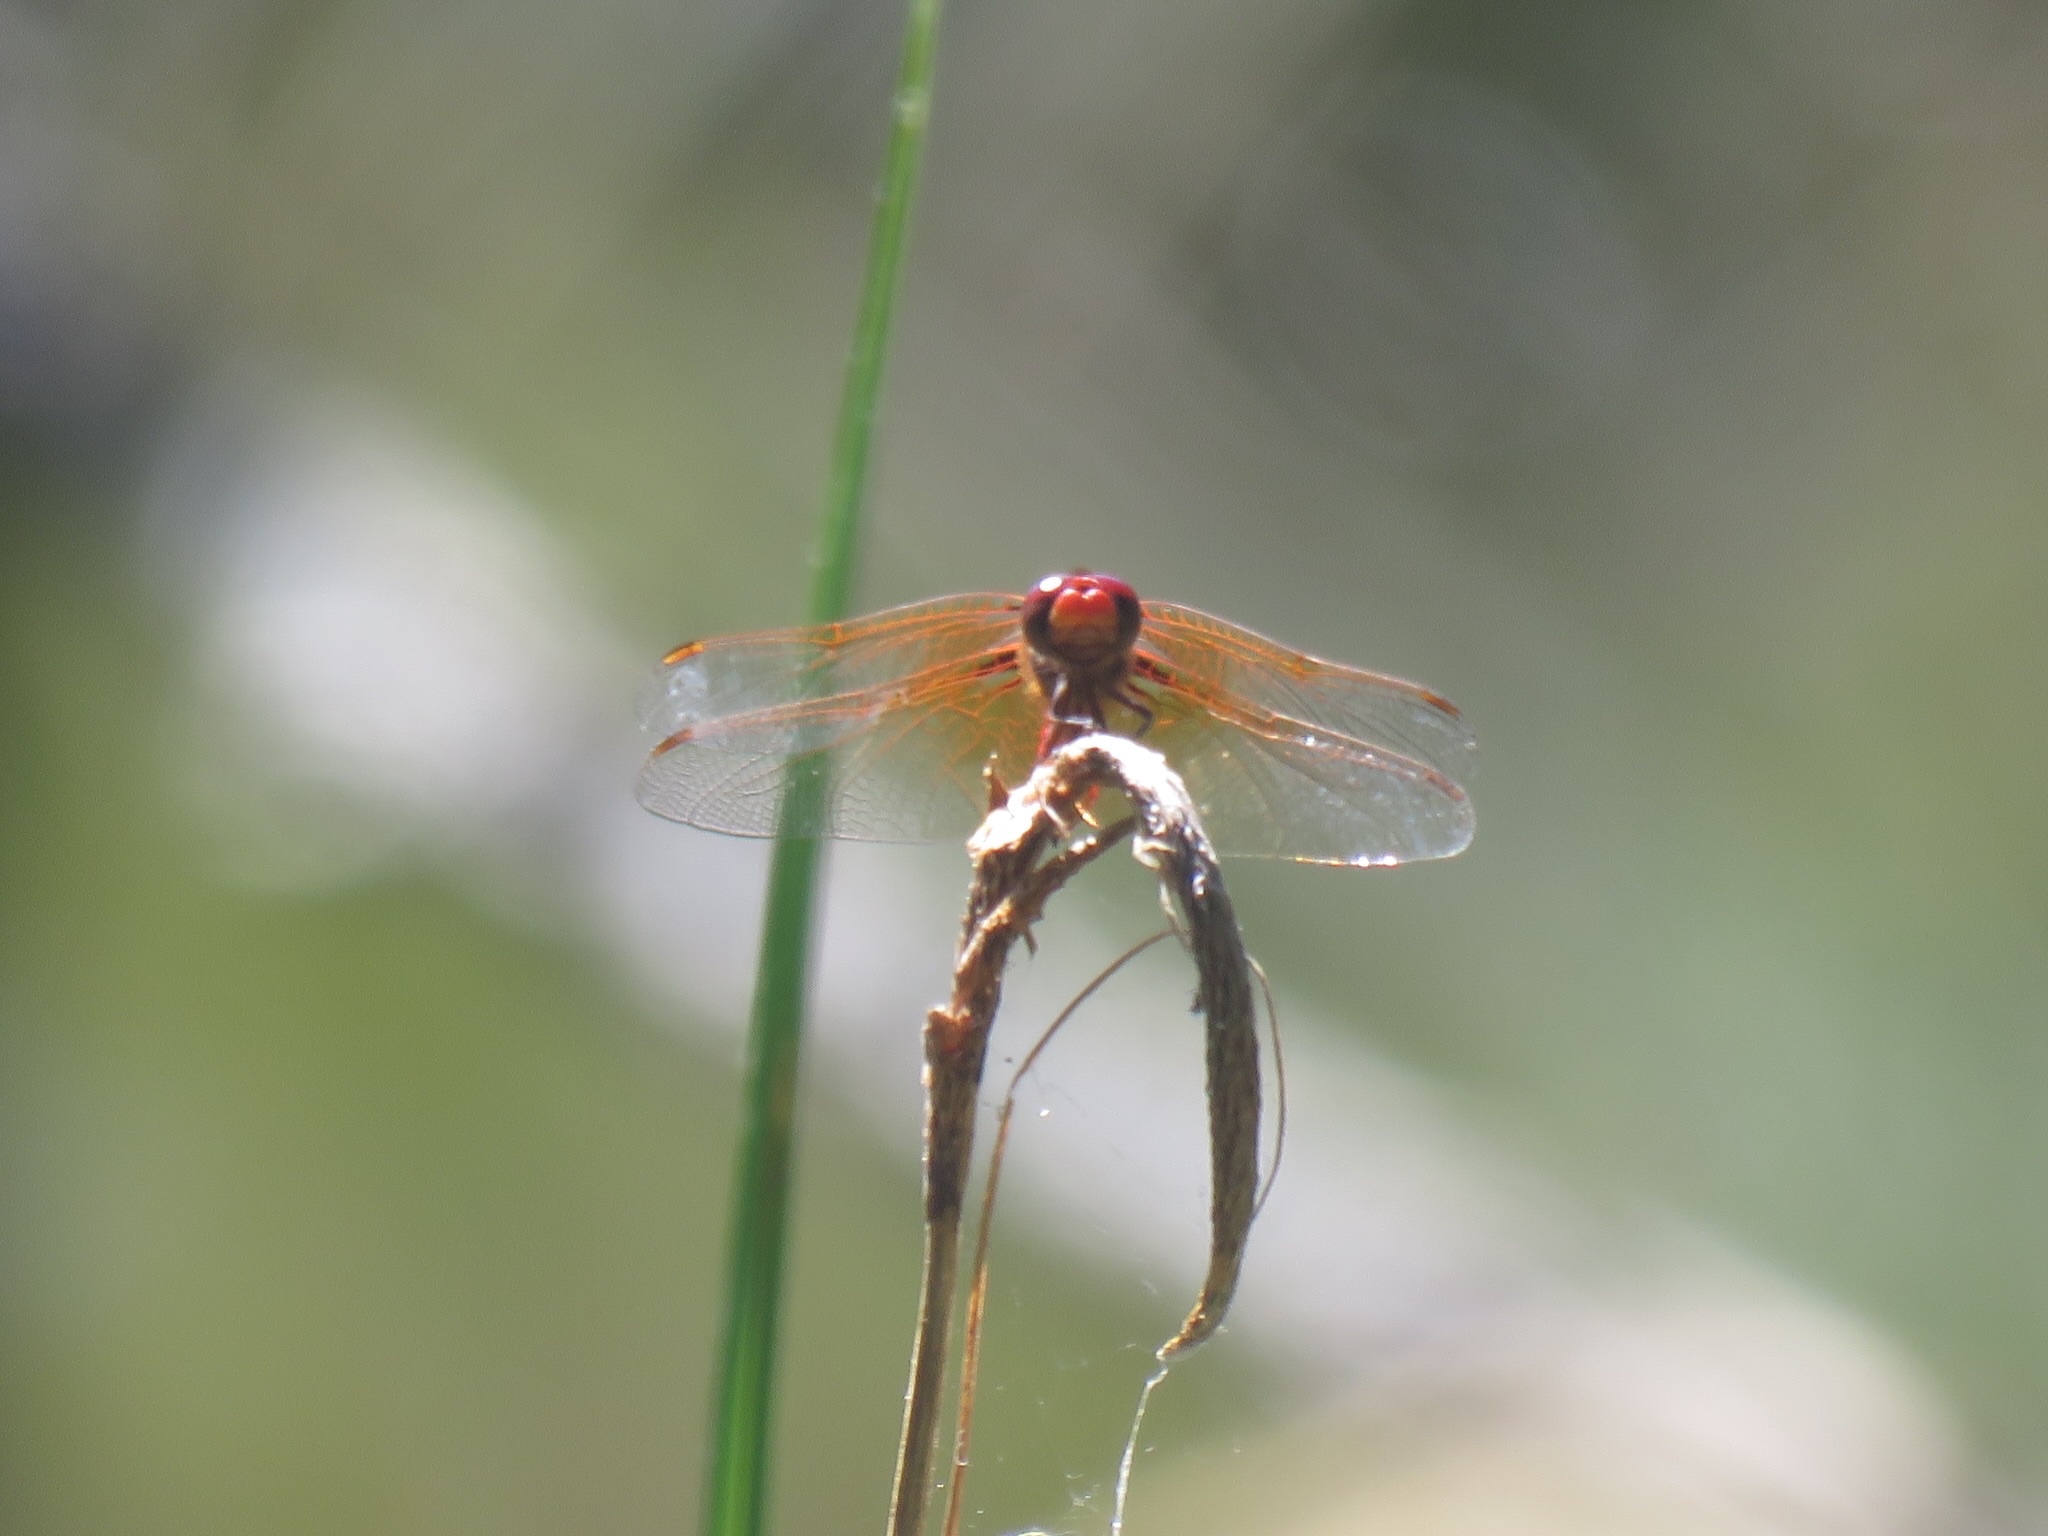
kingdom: Animalia
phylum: Arthropoda
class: Insecta
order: Odonata
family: Libellulidae
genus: Sympetrum
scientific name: Sympetrum illotum
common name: Cardinal meadowhawk
